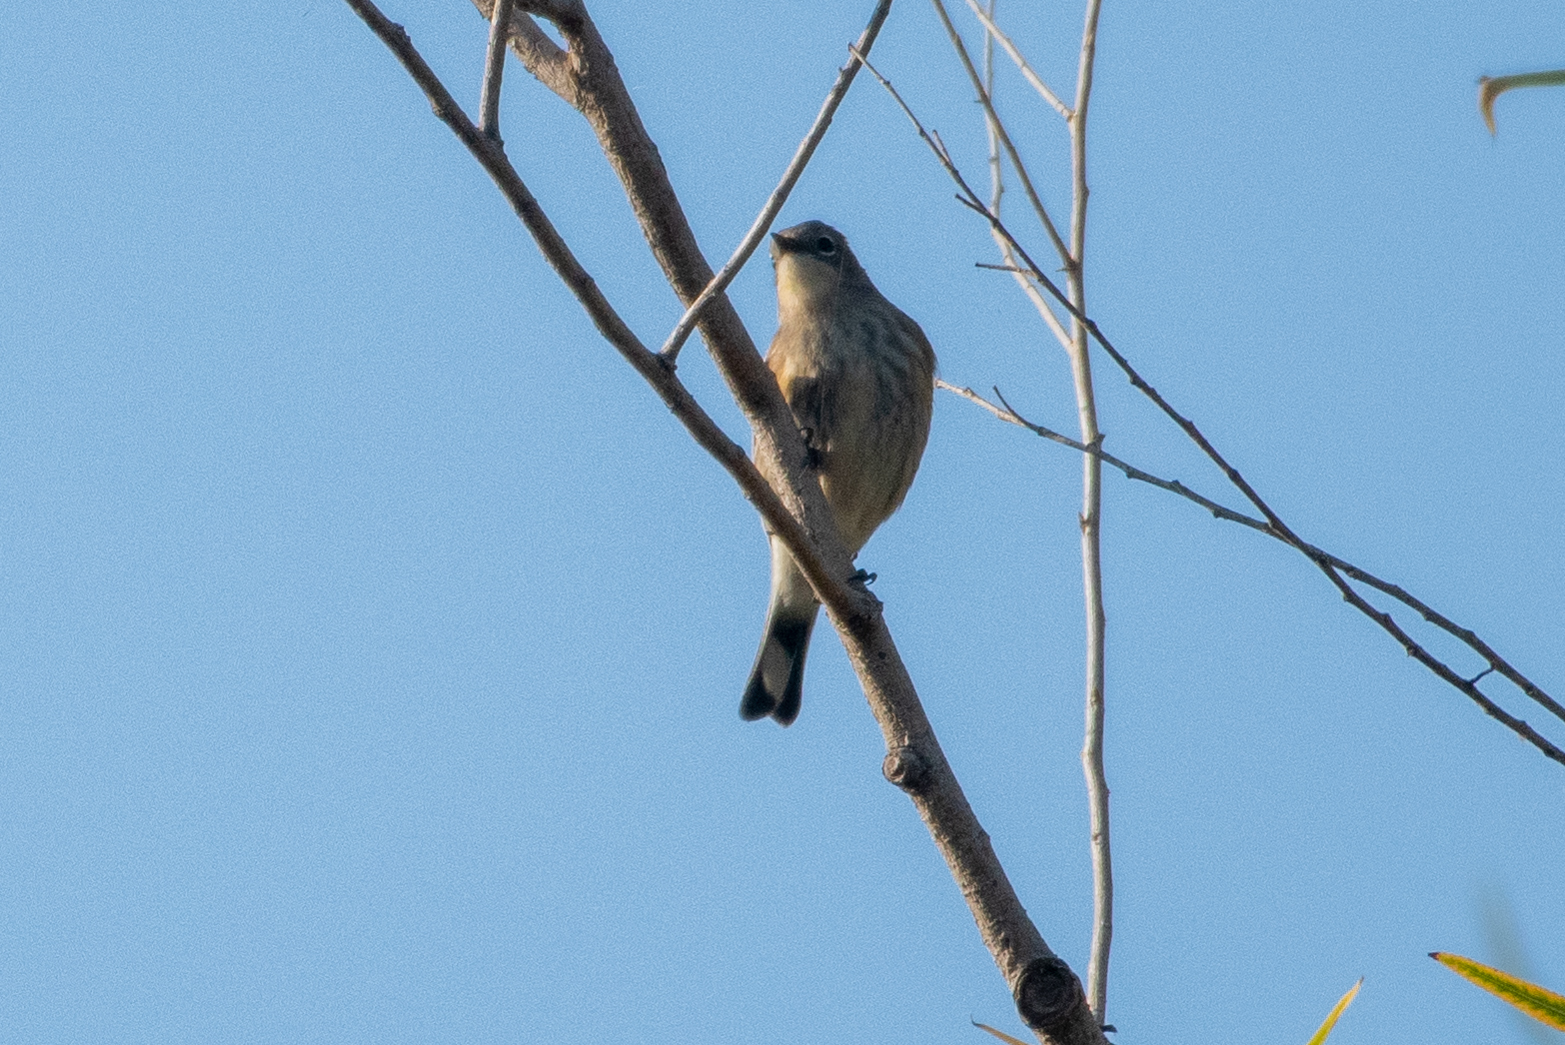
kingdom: Animalia
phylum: Chordata
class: Aves
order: Passeriformes
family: Parulidae
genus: Setophaga
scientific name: Setophaga coronata
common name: Myrtle warbler
